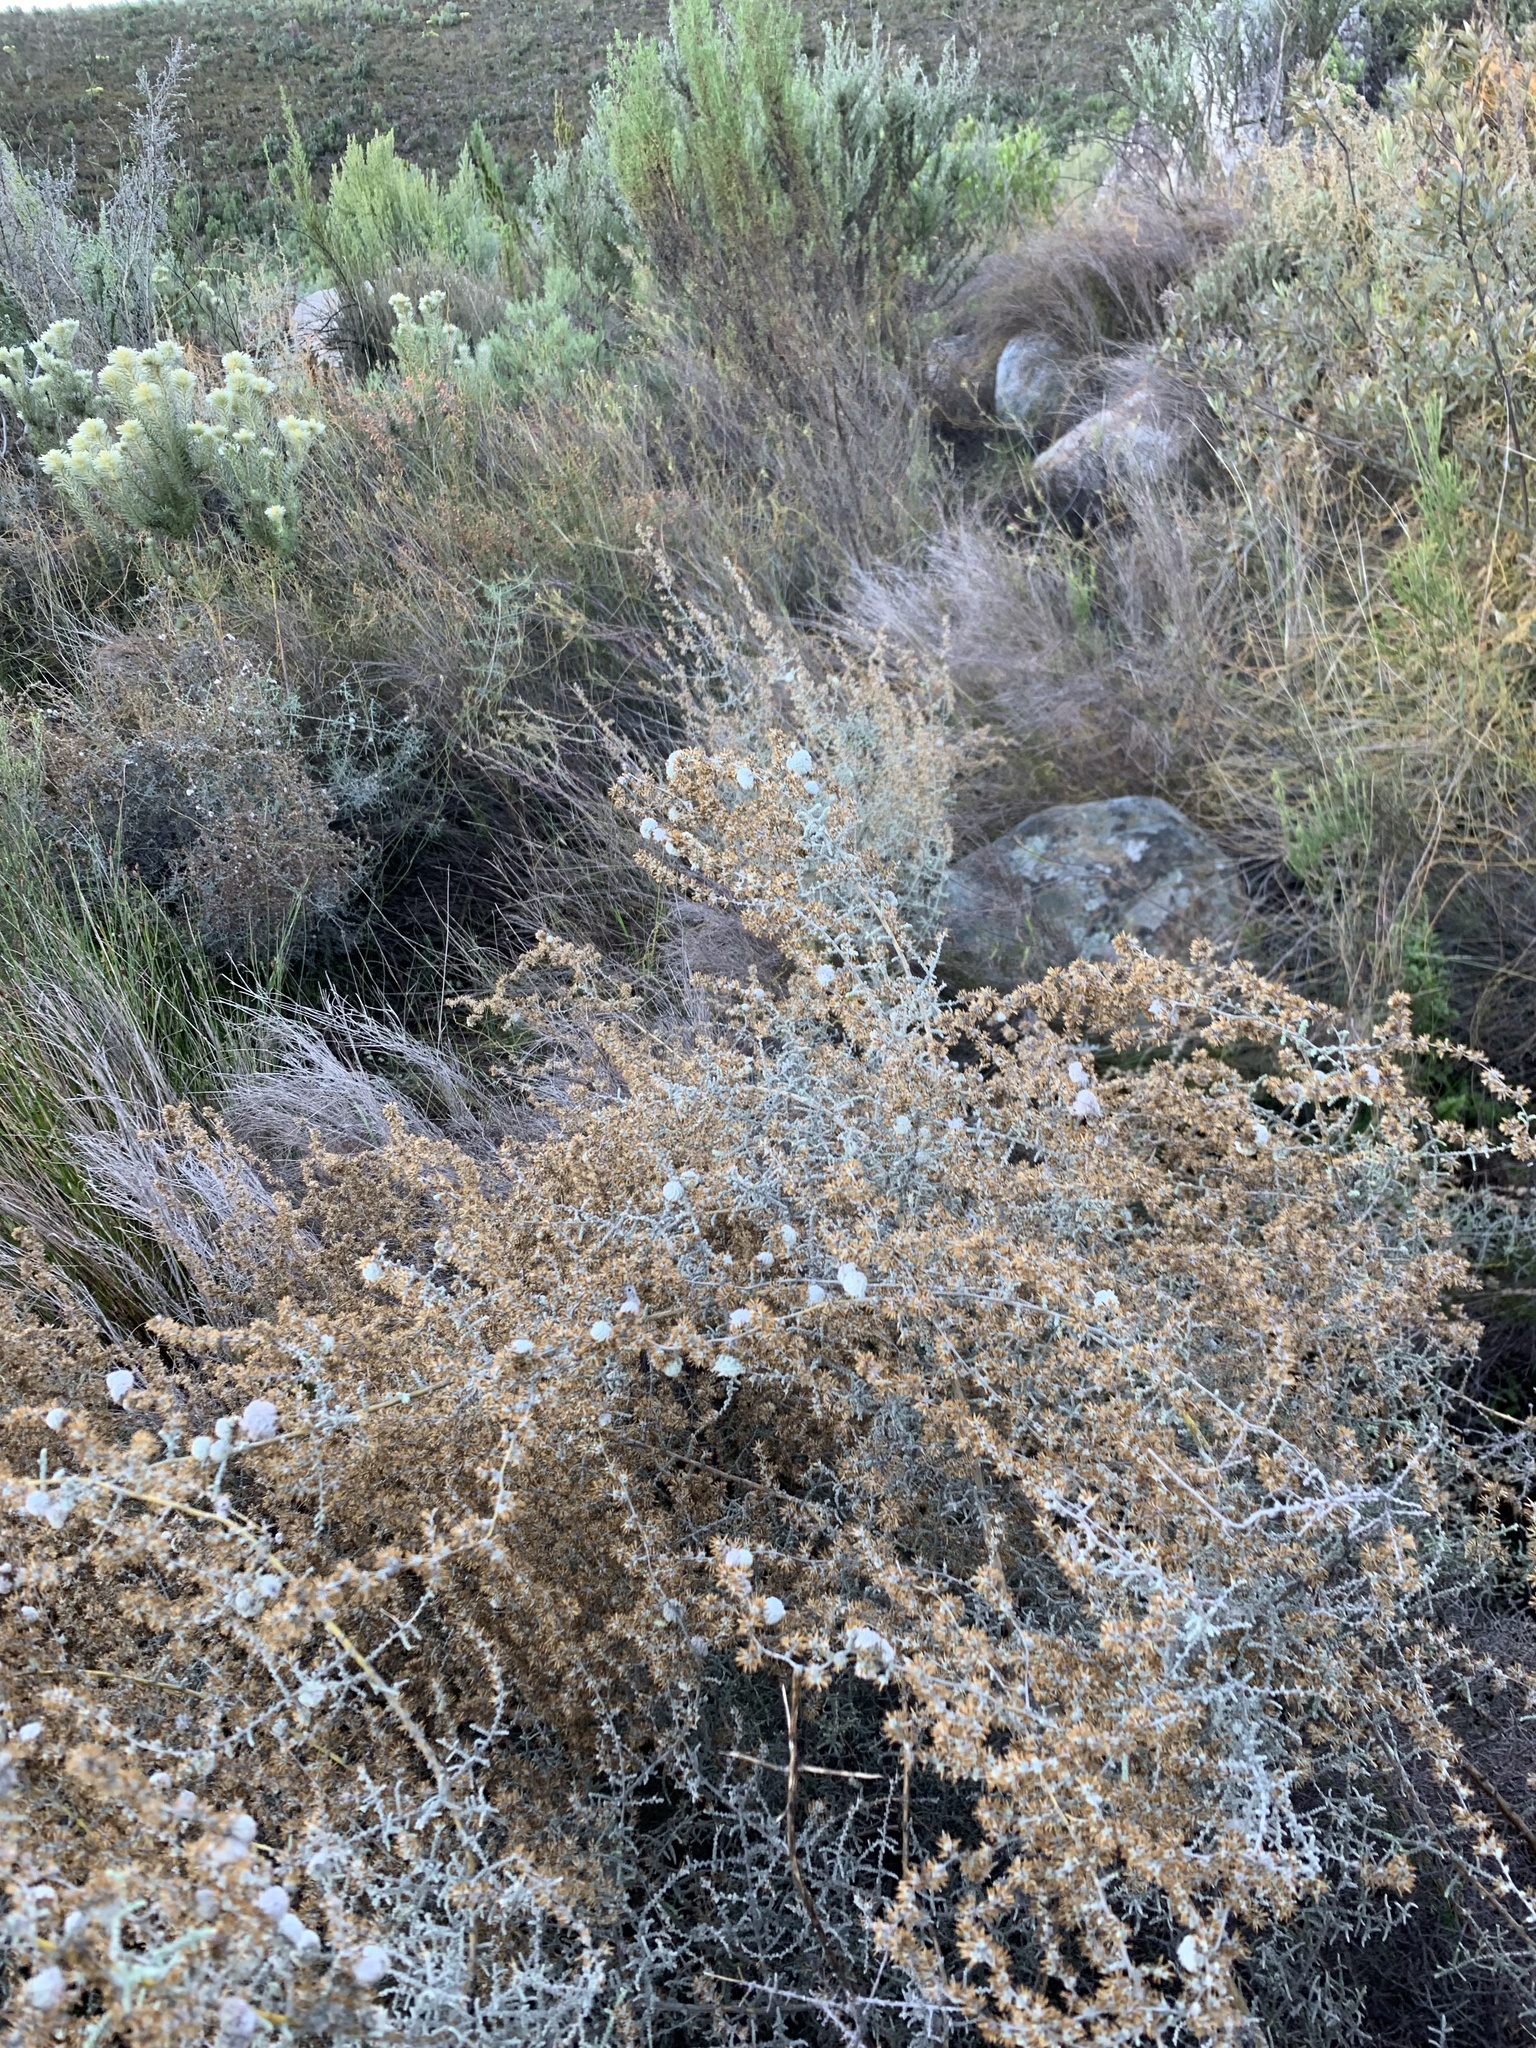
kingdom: Plantae
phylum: Tracheophyta
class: Magnoliopsida
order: Asterales
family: Asteraceae
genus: Seriphium
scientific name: Seriphium plumosum
